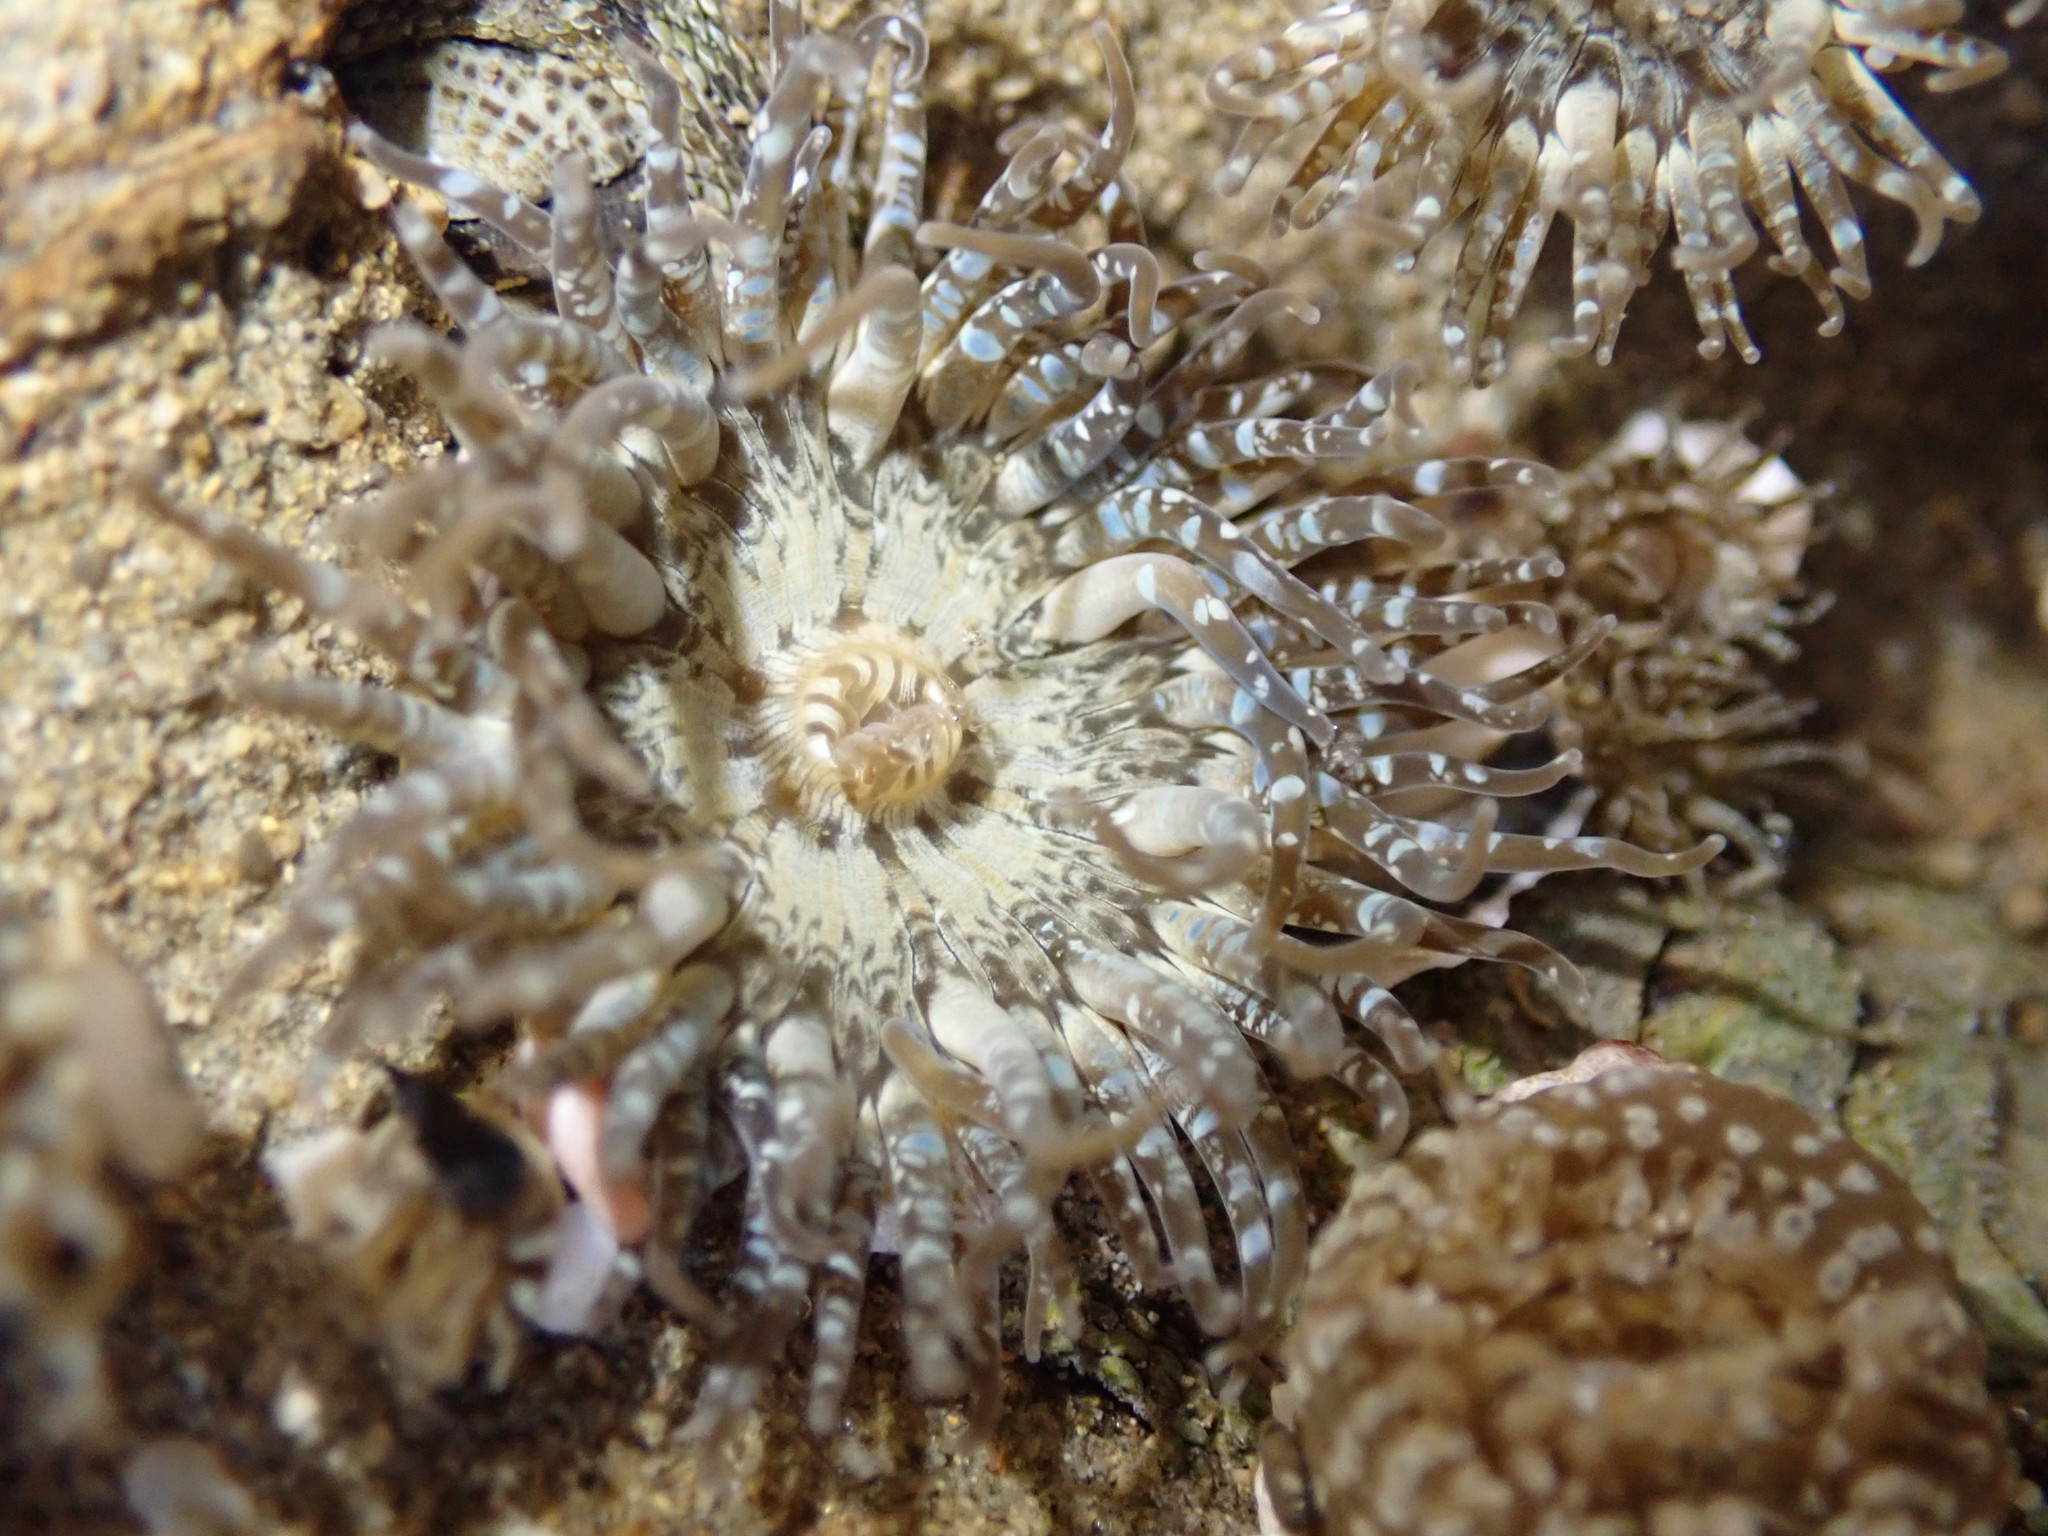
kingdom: Animalia
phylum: Cnidaria
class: Anthozoa
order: Actiniaria
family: Actiniidae
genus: Anthopleura
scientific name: Anthopleura hermaphroditica
